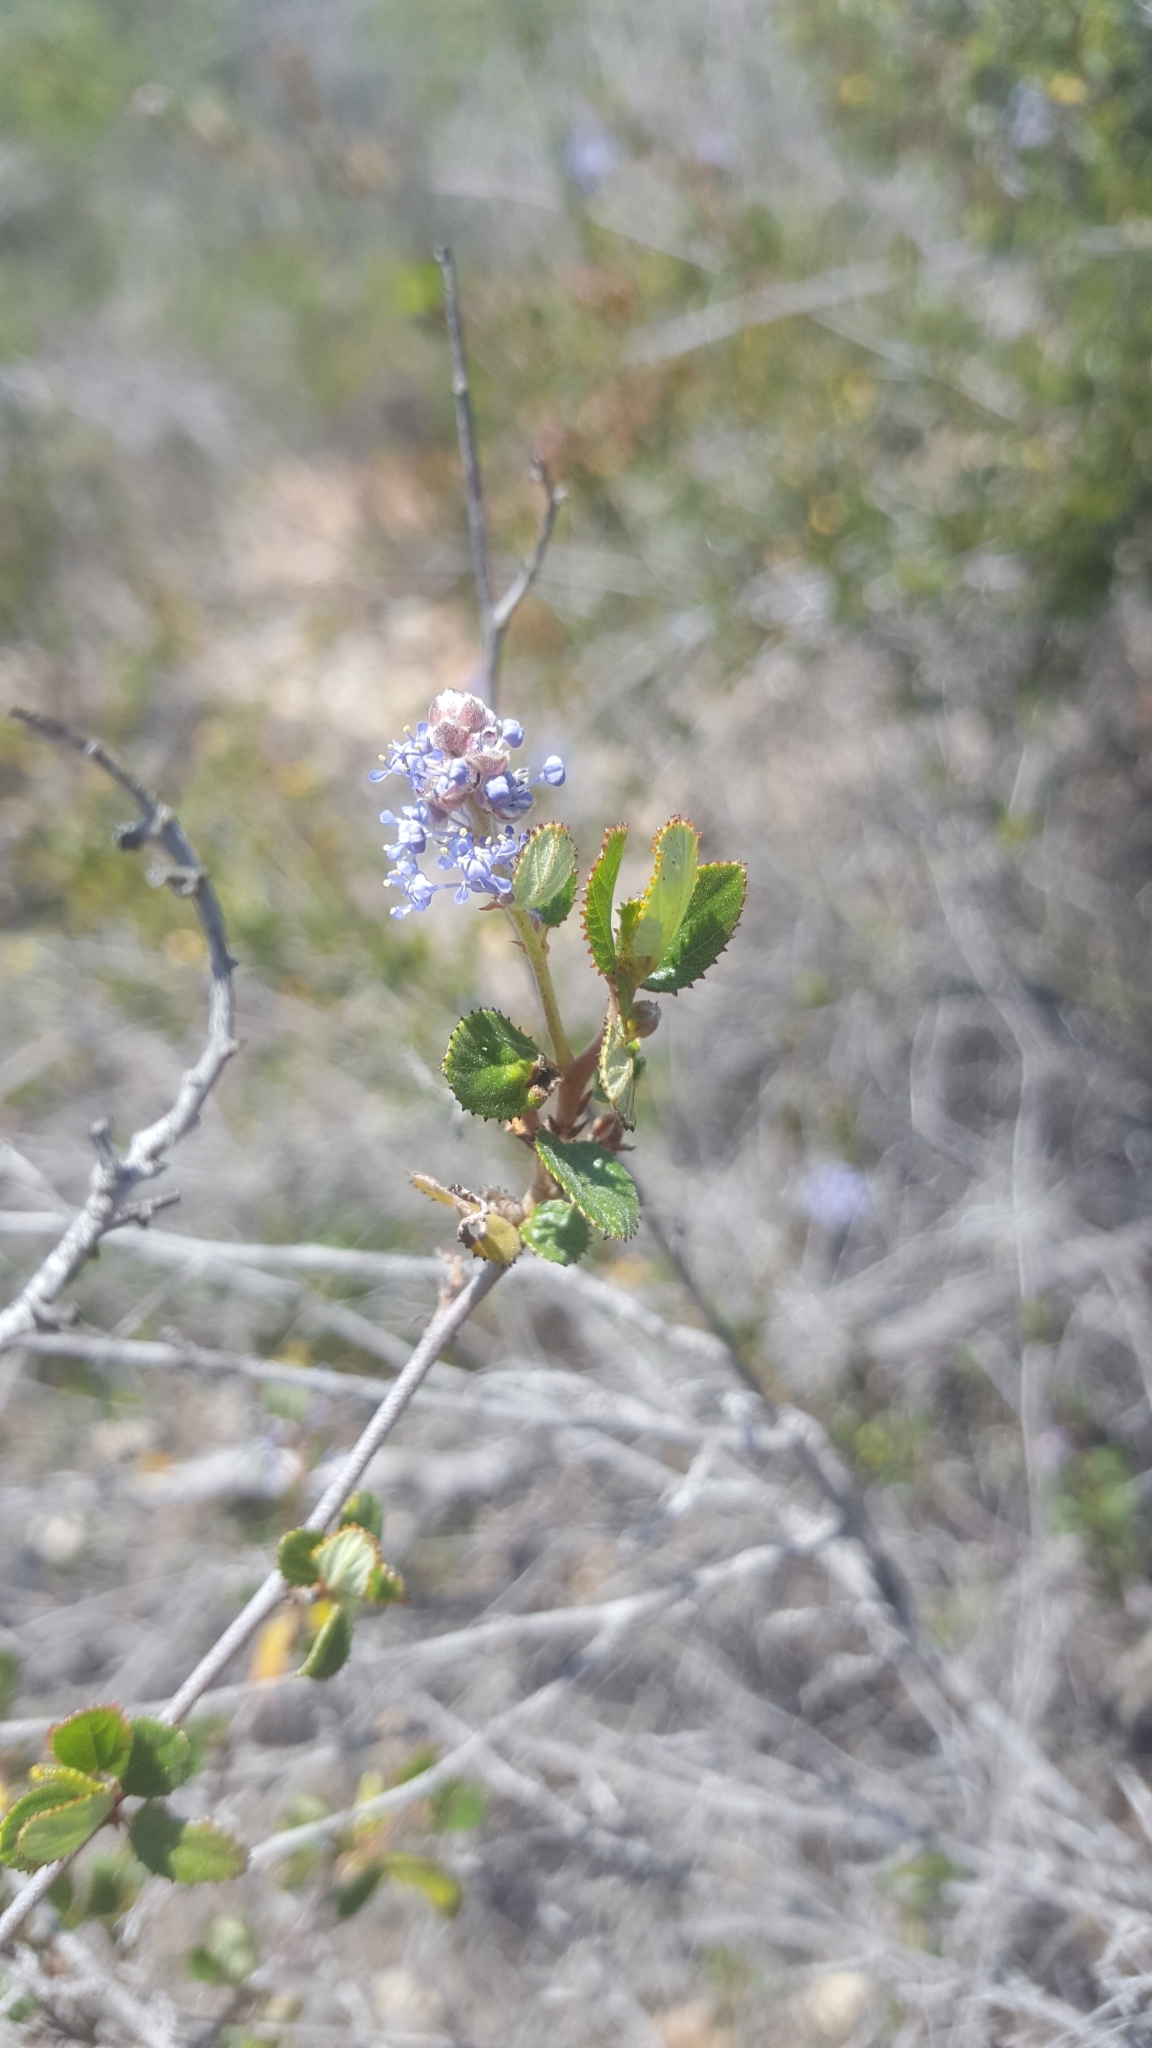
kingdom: Plantae
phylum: Tracheophyta
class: Magnoliopsida
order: Rosales
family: Rhamnaceae
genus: Ceanothus
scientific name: Ceanothus tomentosus
